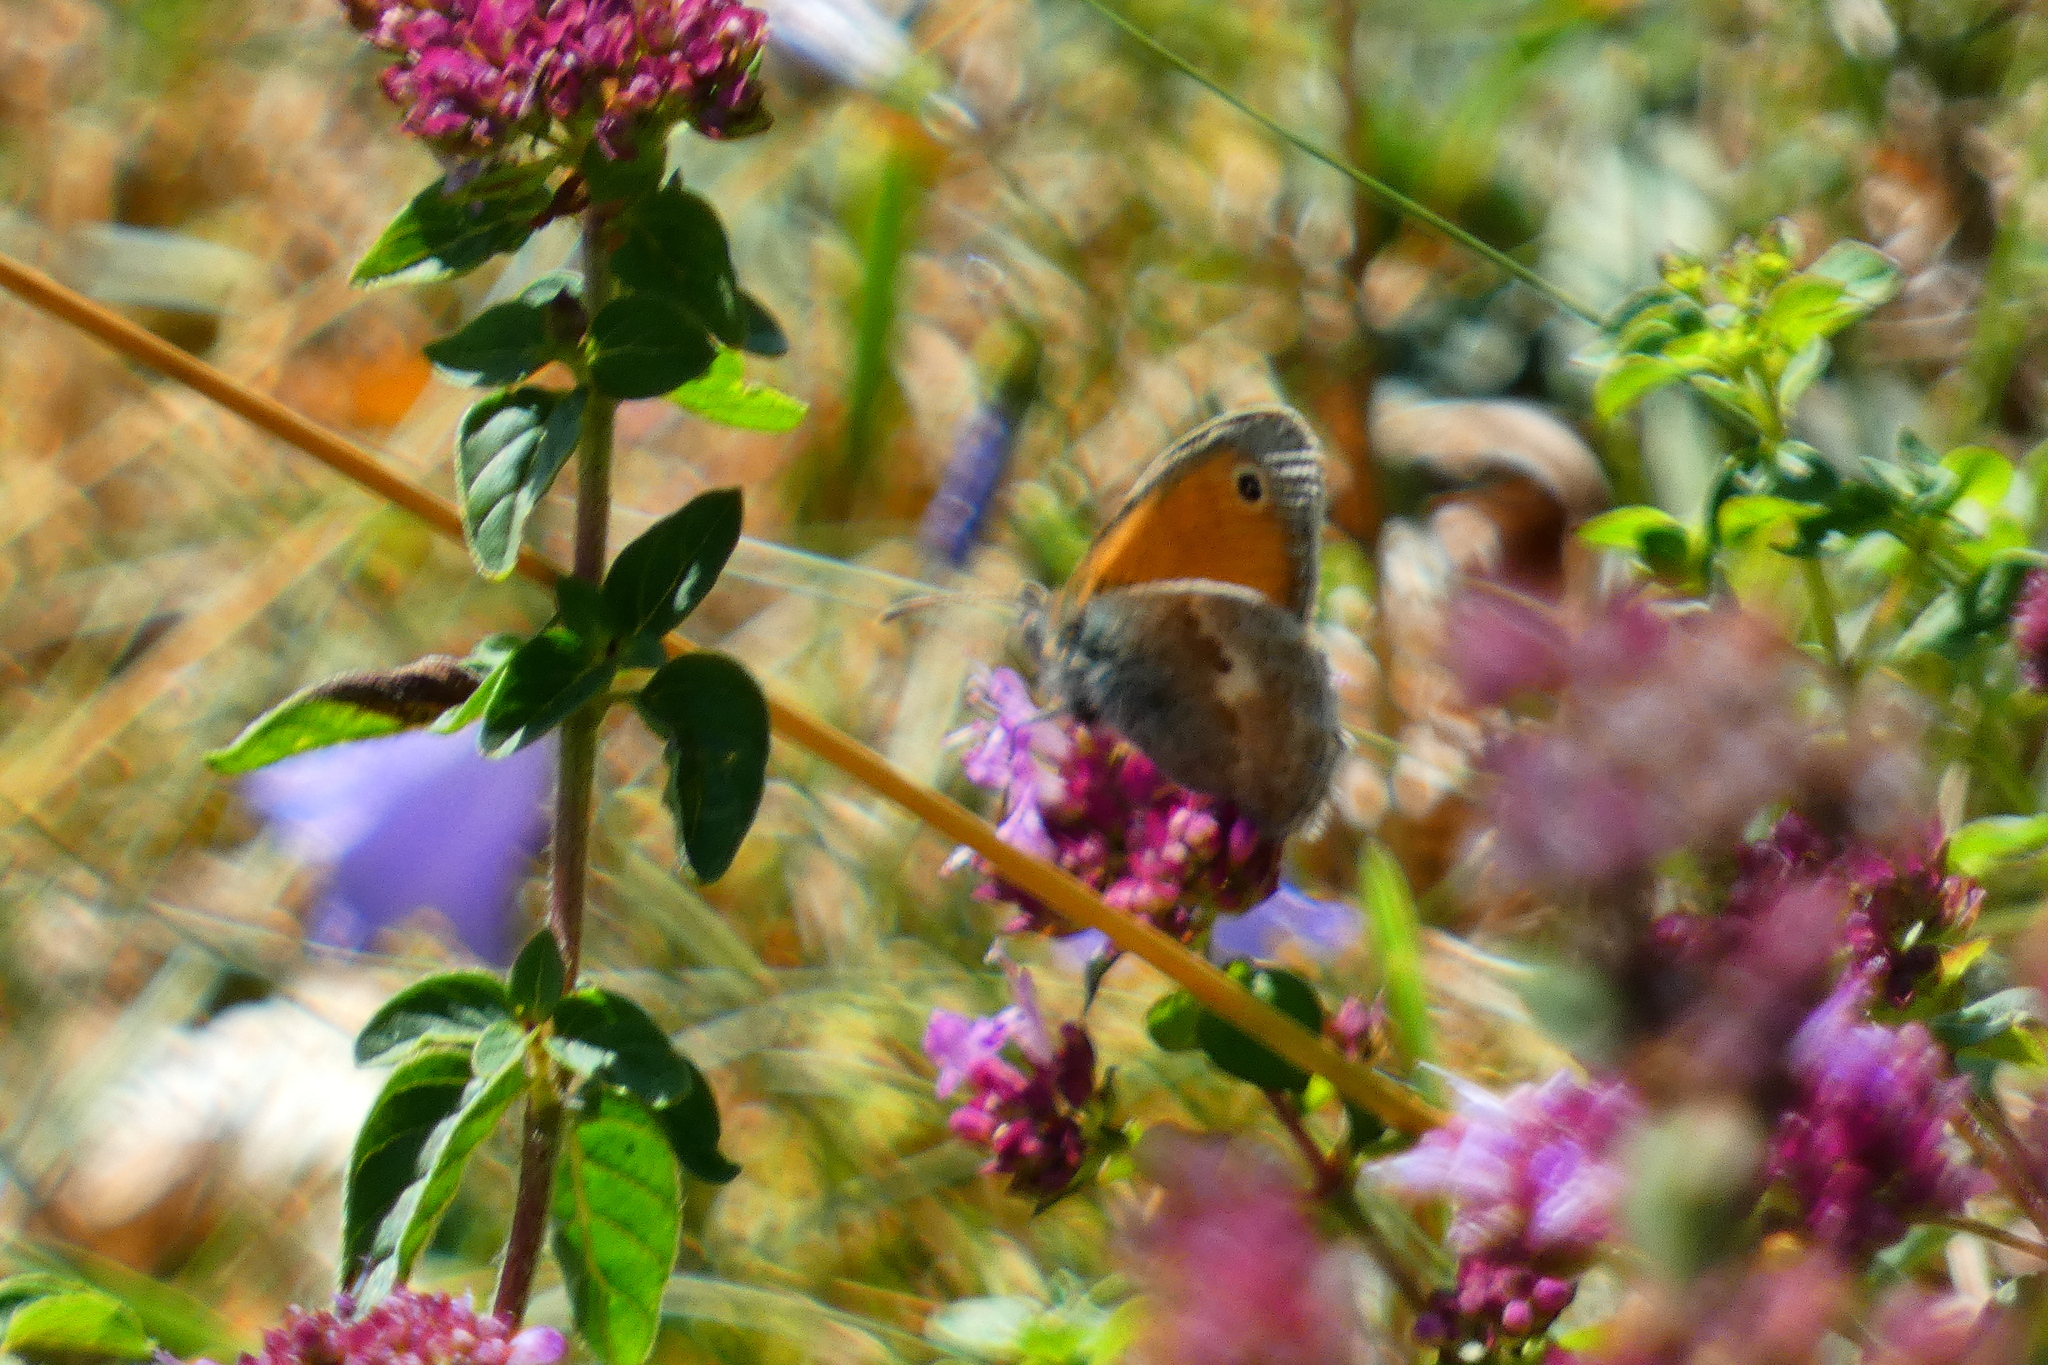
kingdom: Animalia
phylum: Arthropoda
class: Insecta
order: Lepidoptera
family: Nymphalidae
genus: Coenonympha
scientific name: Coenonympha pamphilus
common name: Small heath
